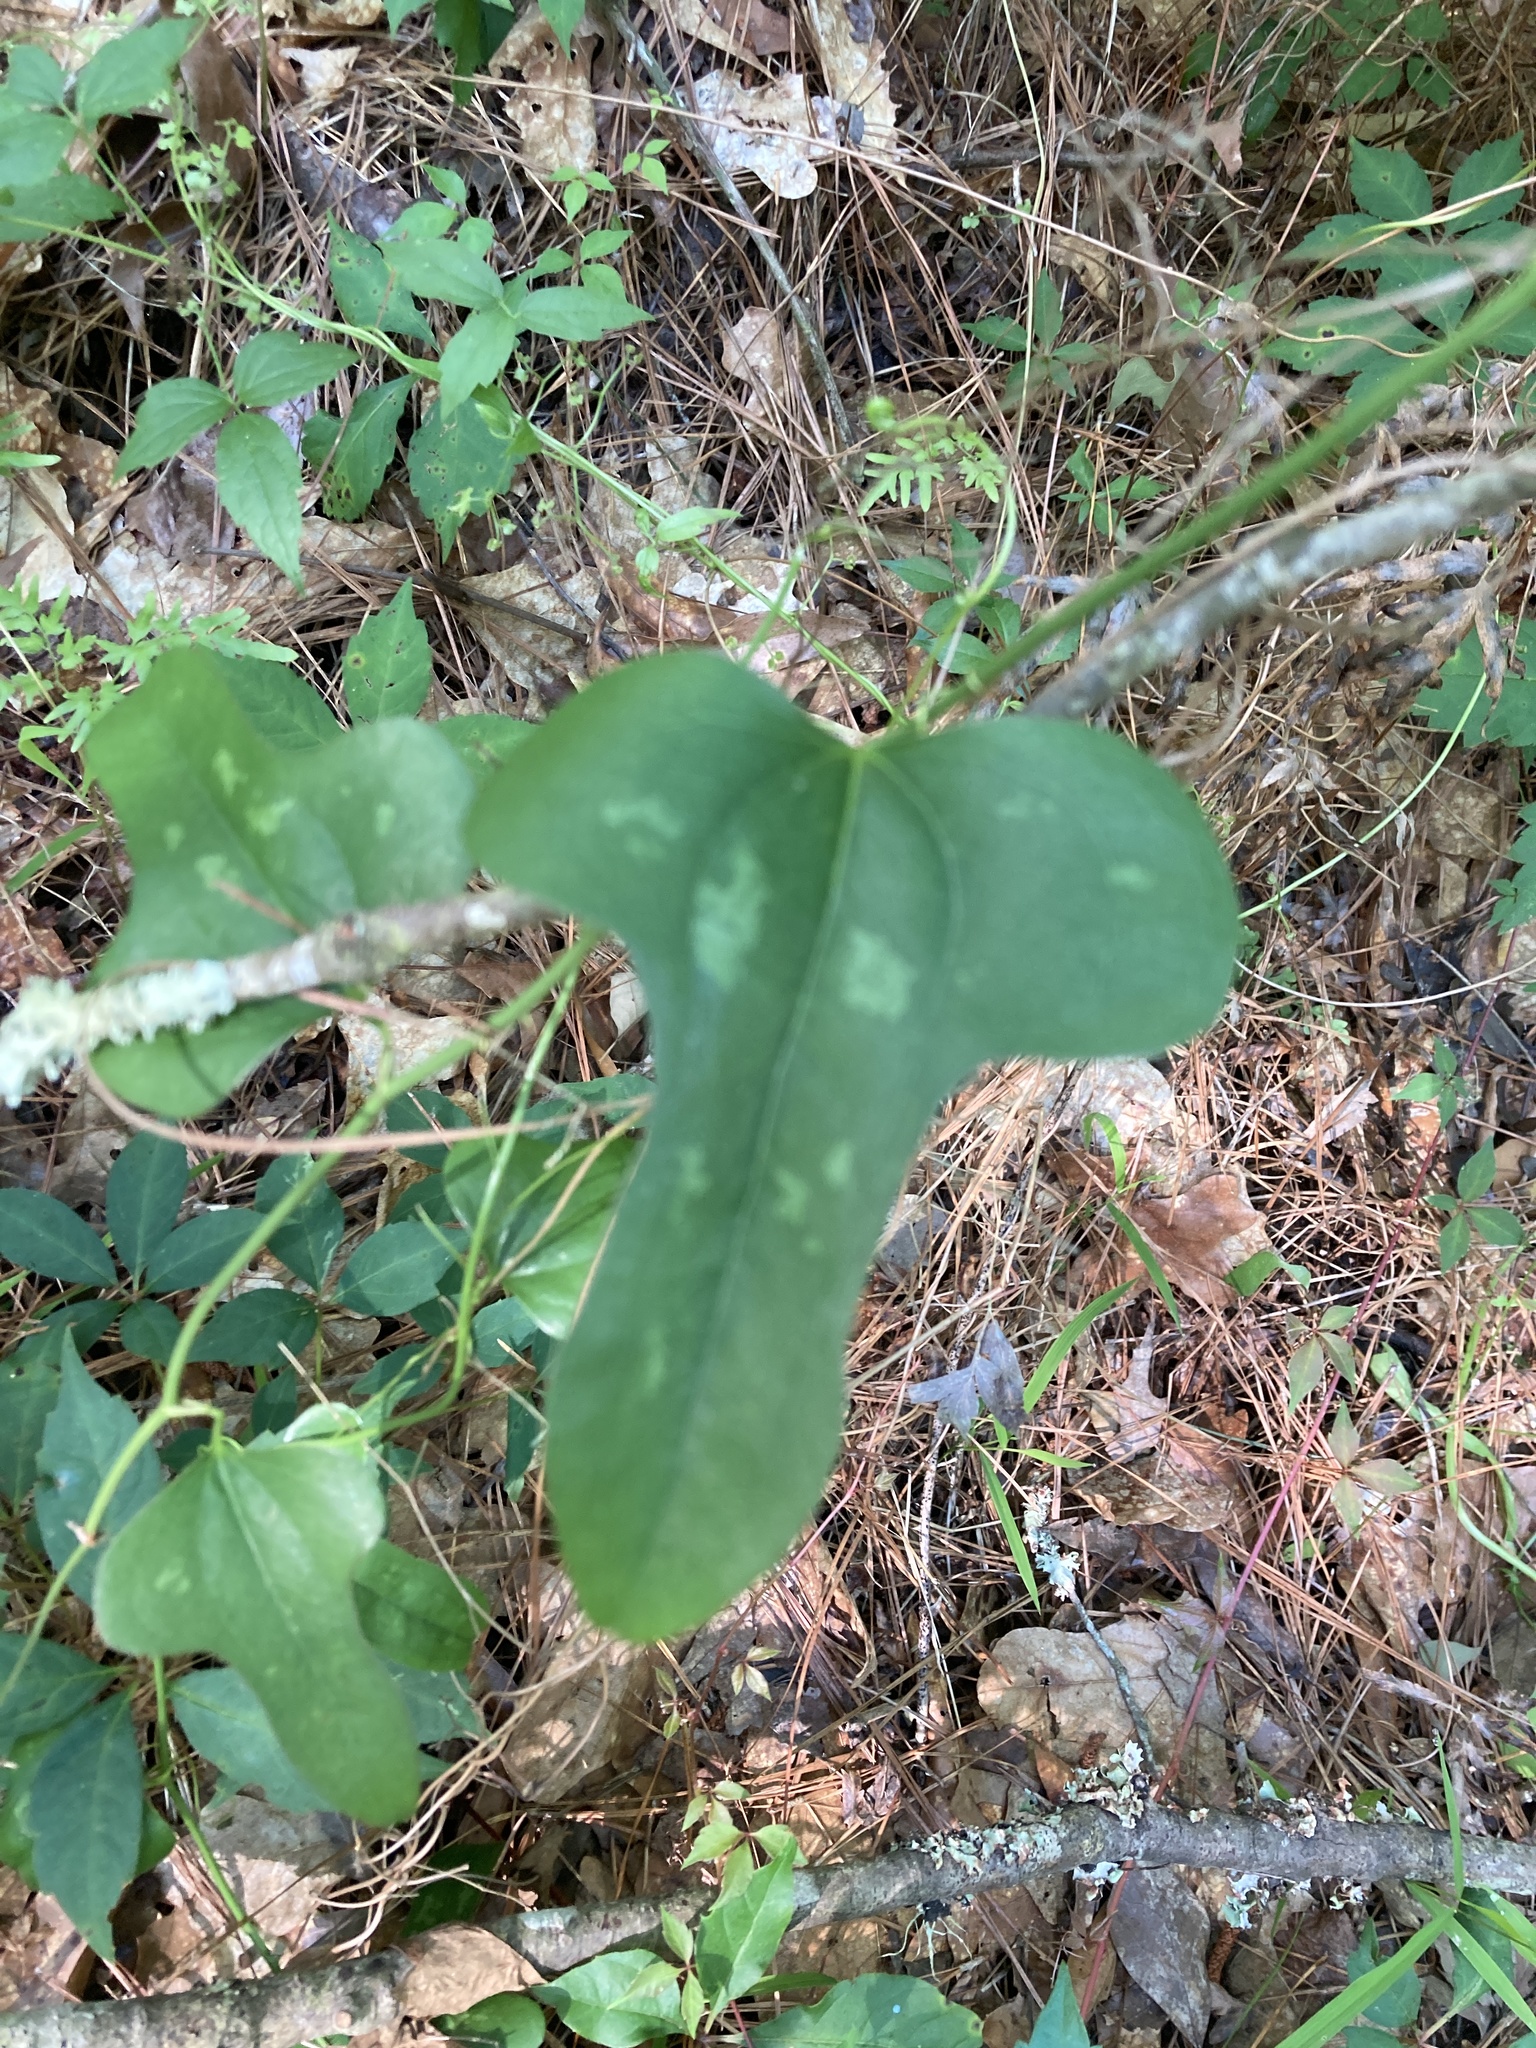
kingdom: Plantae
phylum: Tracheophyta
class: Liliopsida
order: Liliales
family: Smilacaceae
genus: Smilax
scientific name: Smilax bona-nox
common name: Catbrier
